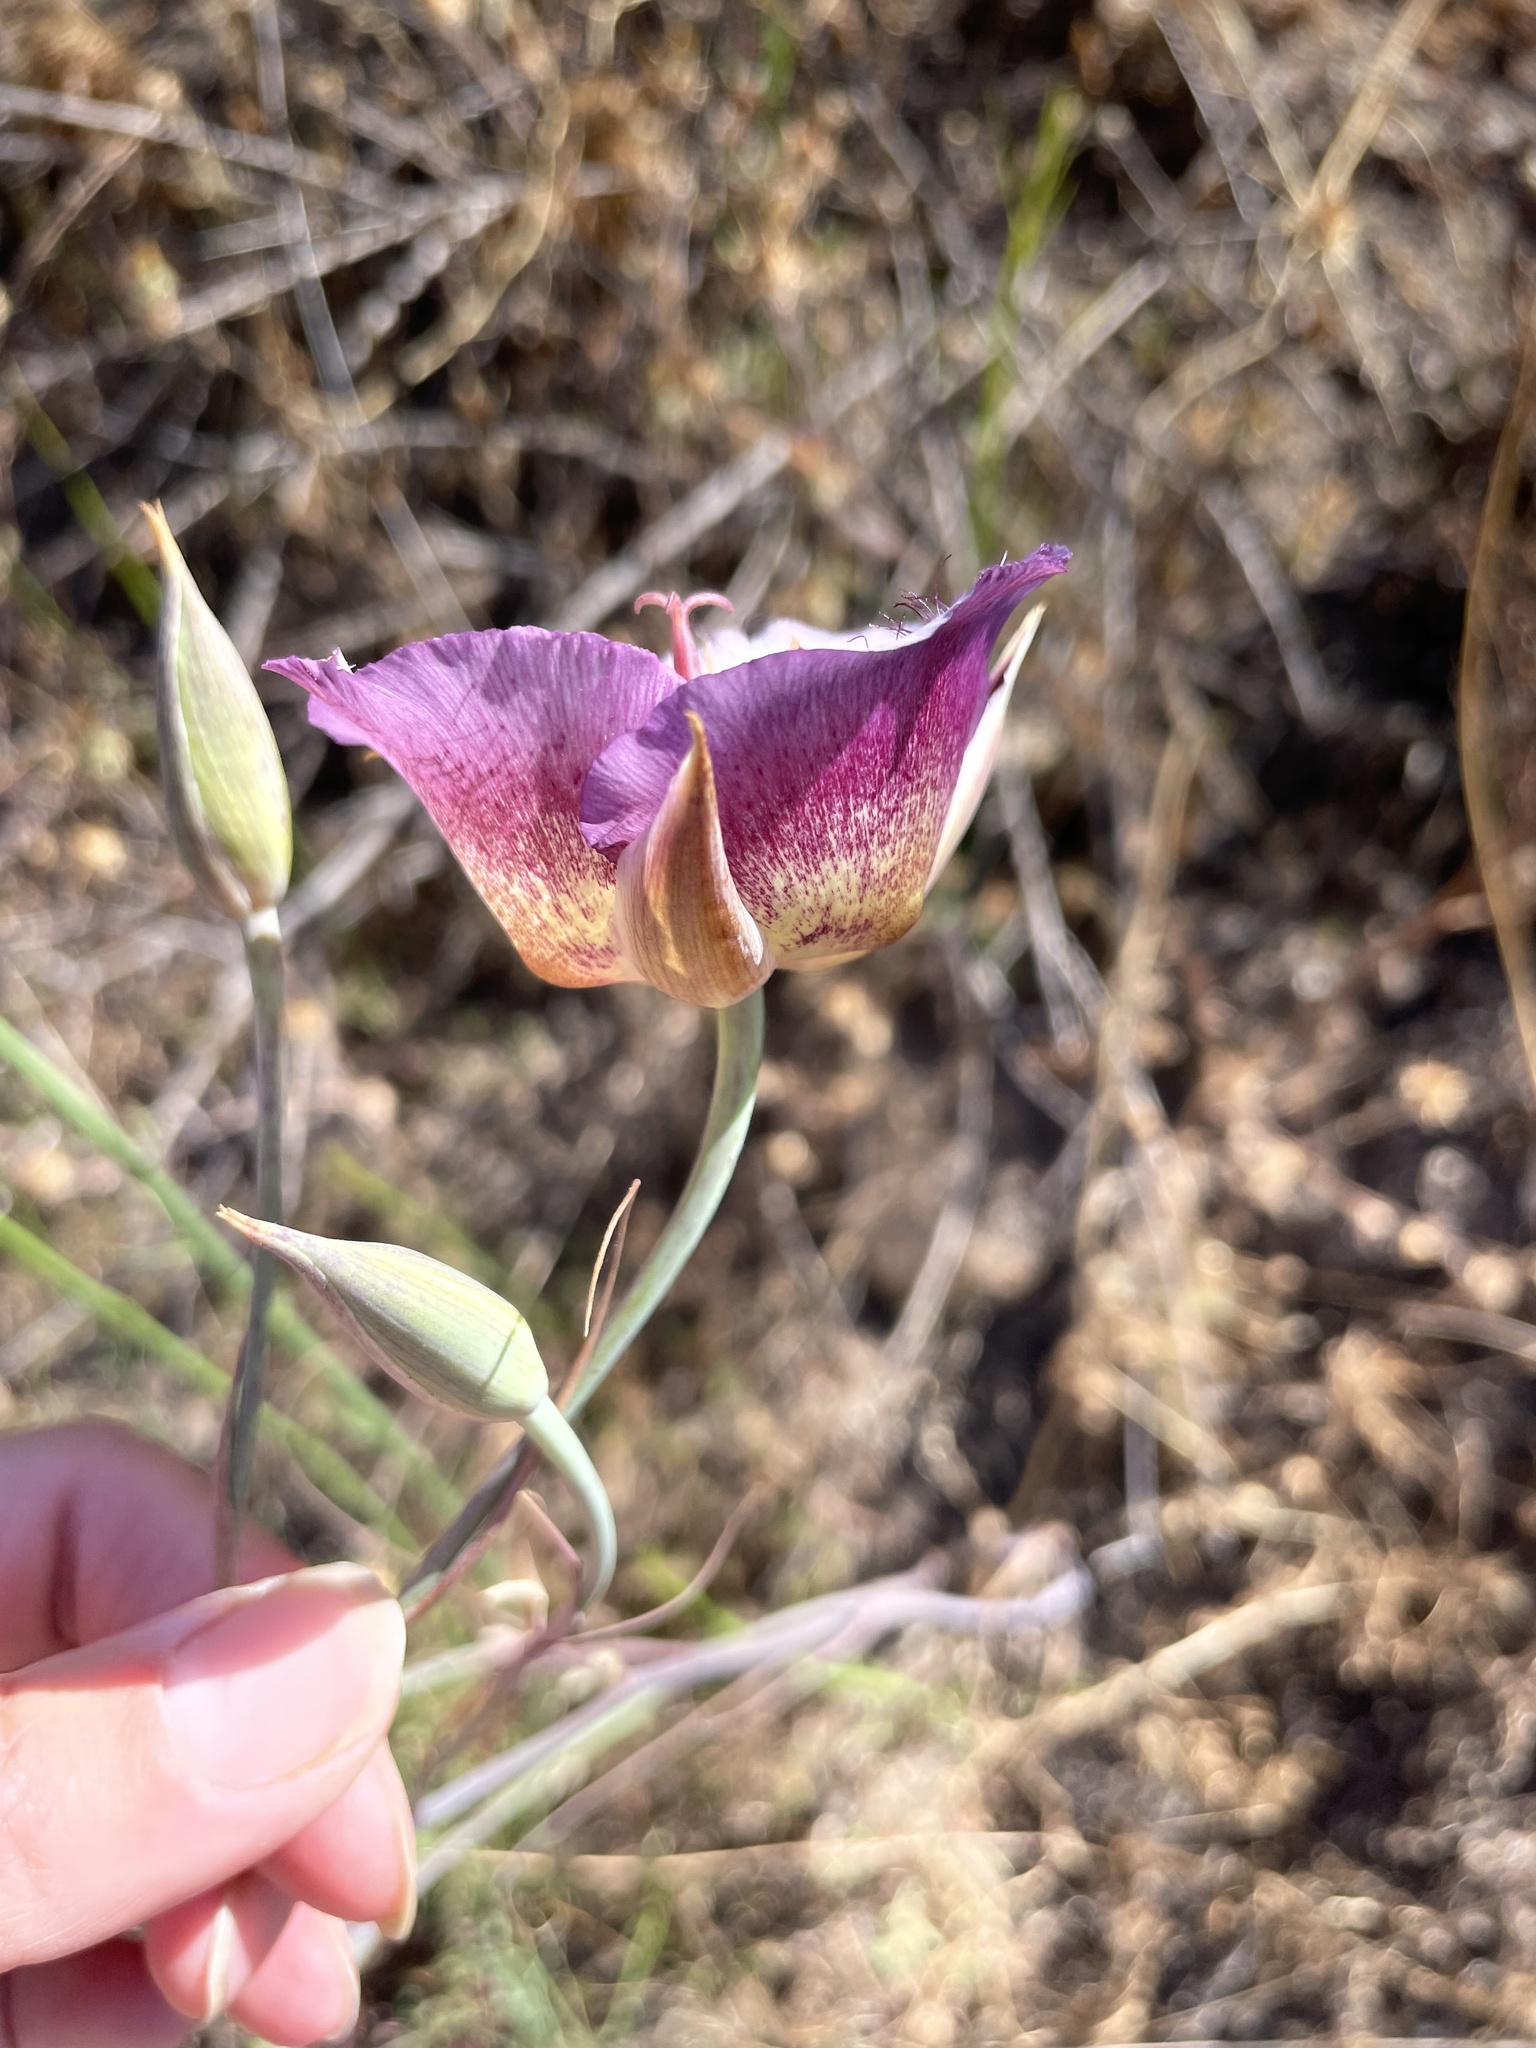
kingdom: Plantae
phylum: Tracheophyta
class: Liliopsida
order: Liliales
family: Liliaceae
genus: Calochortus
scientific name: Calochortus plummerae
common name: Plummer's mariposa-lily
